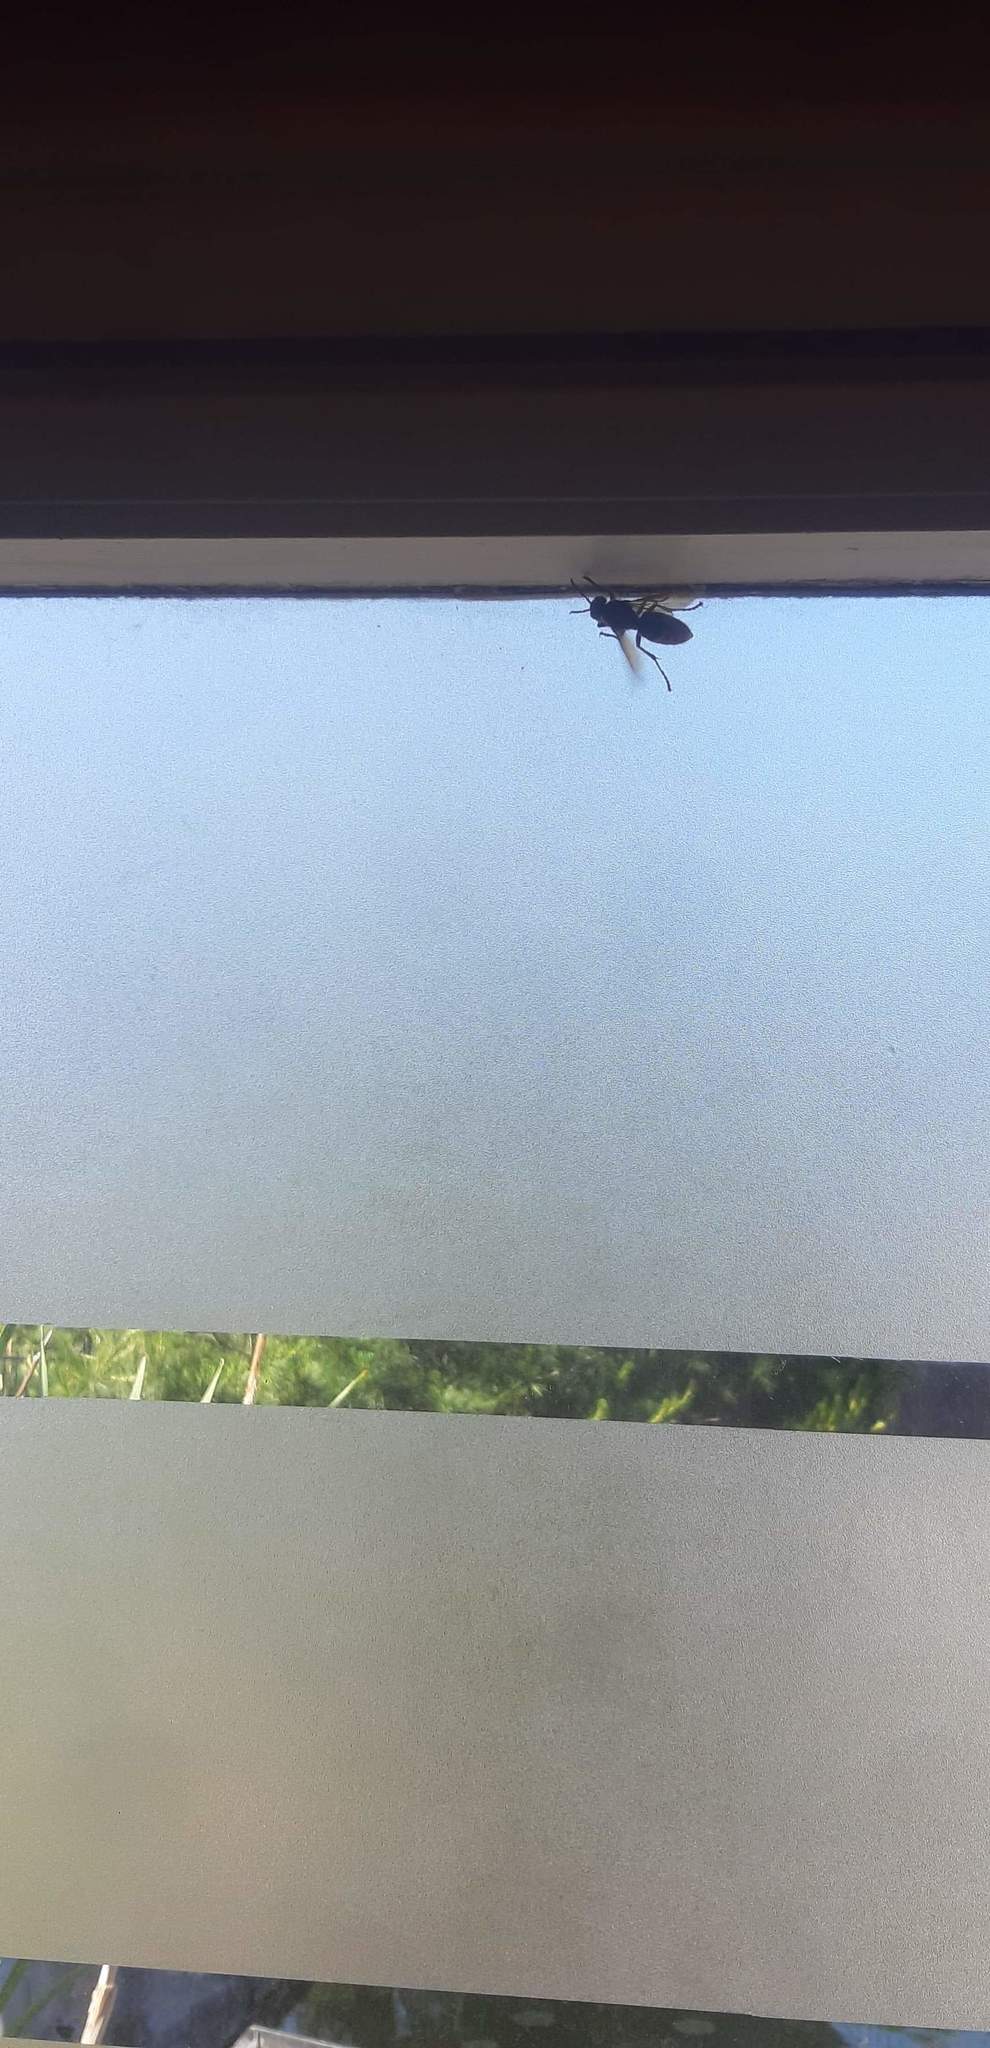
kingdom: Animalia
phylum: Arthropoda
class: Insecta
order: Hymenoptera
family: Vespidae
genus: Vespa
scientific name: Vespa crabro
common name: Hornet
